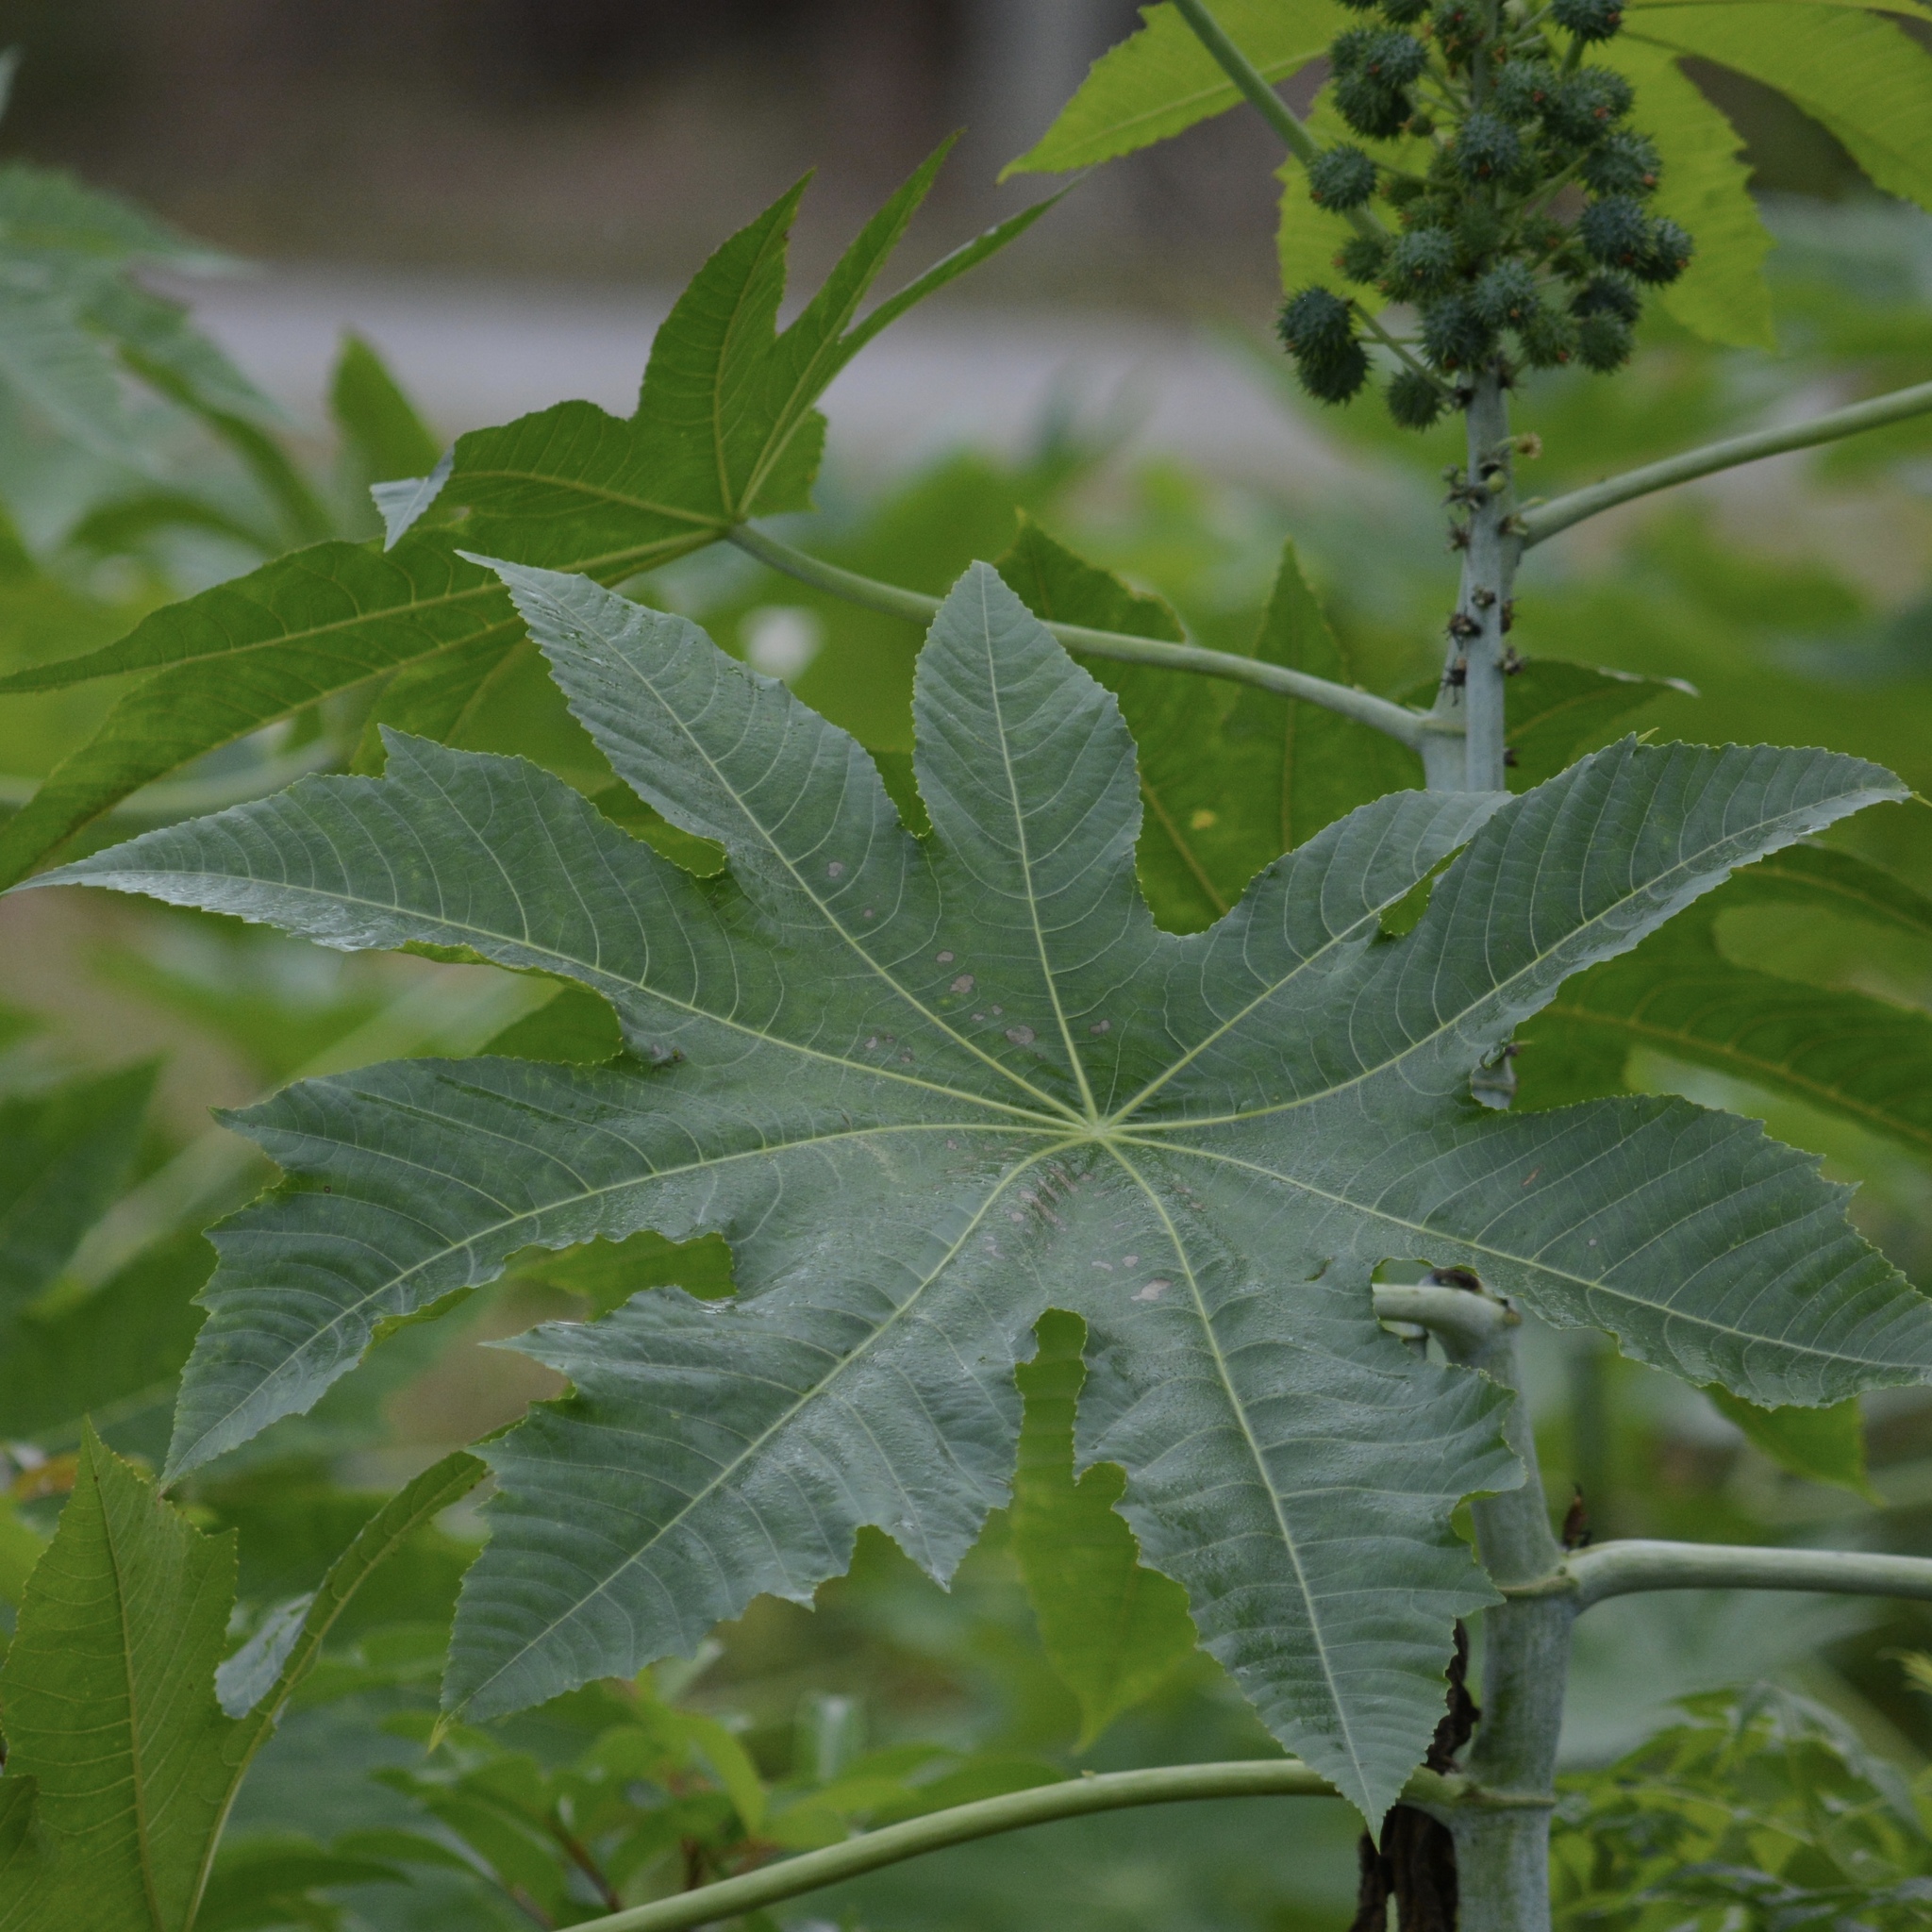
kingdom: Plantae
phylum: Tracheophyta
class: Magnoliopsida
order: Malpighiales
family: Euphorbiaceae
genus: Ricinus
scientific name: Ricinus communis
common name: Castor-oil-plant
